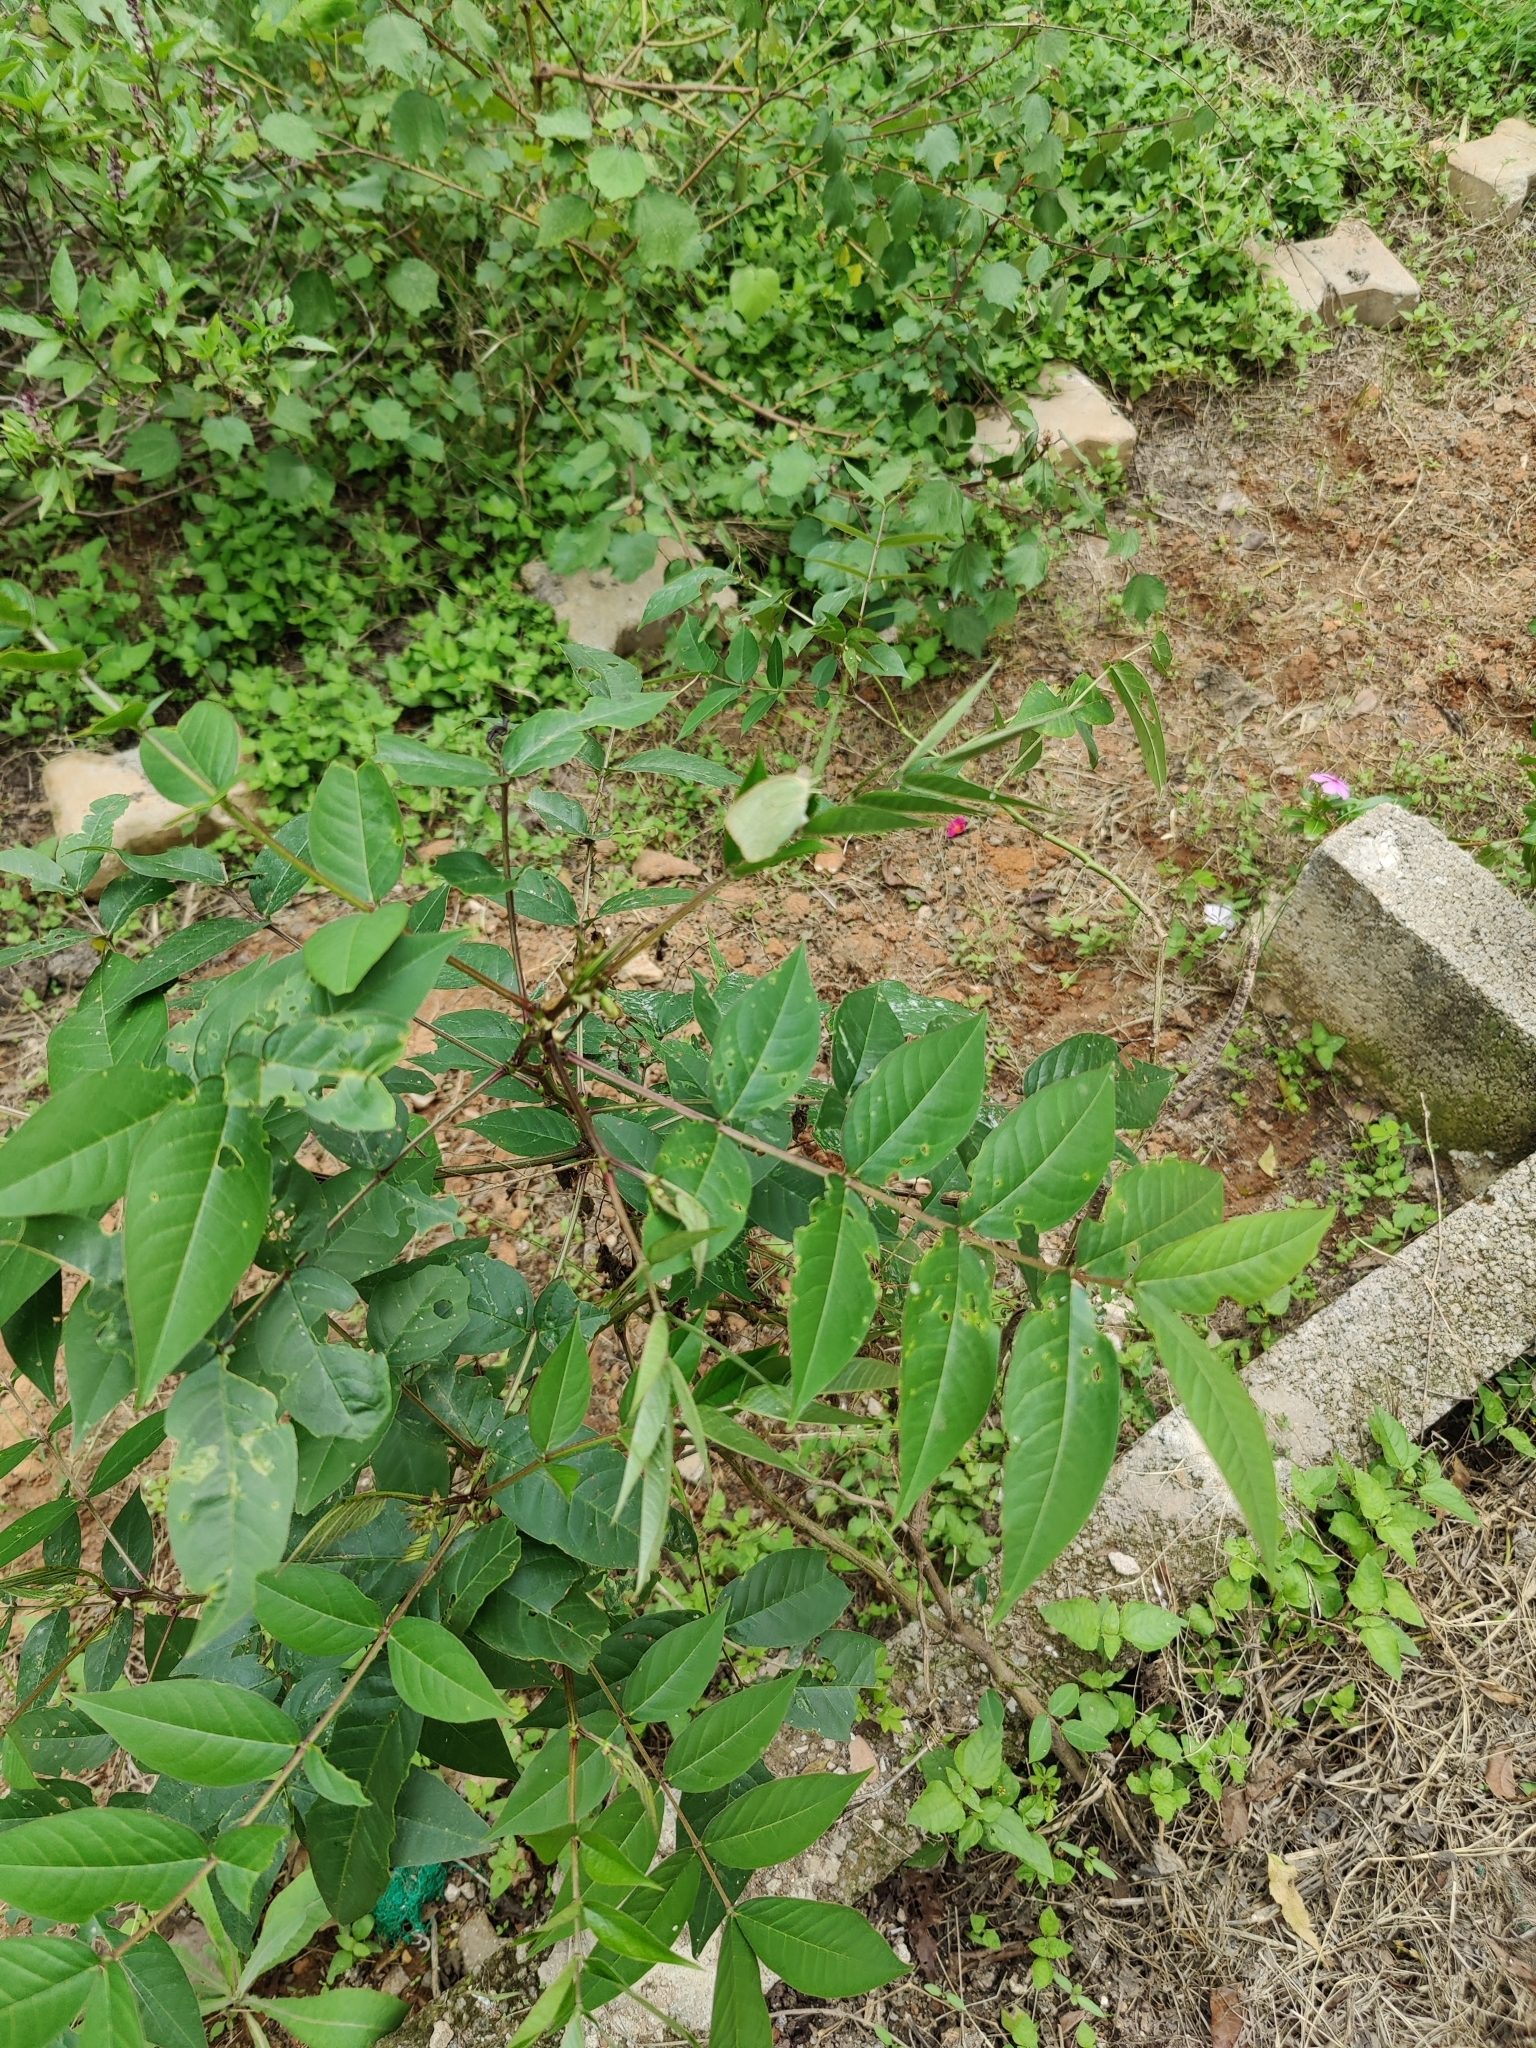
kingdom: Animalia
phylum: Arthropoda
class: Insecta
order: Lepidoptera
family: Pieridae
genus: Catopsilia
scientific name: Catopsilia pyranthe
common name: Mottled emigrant
